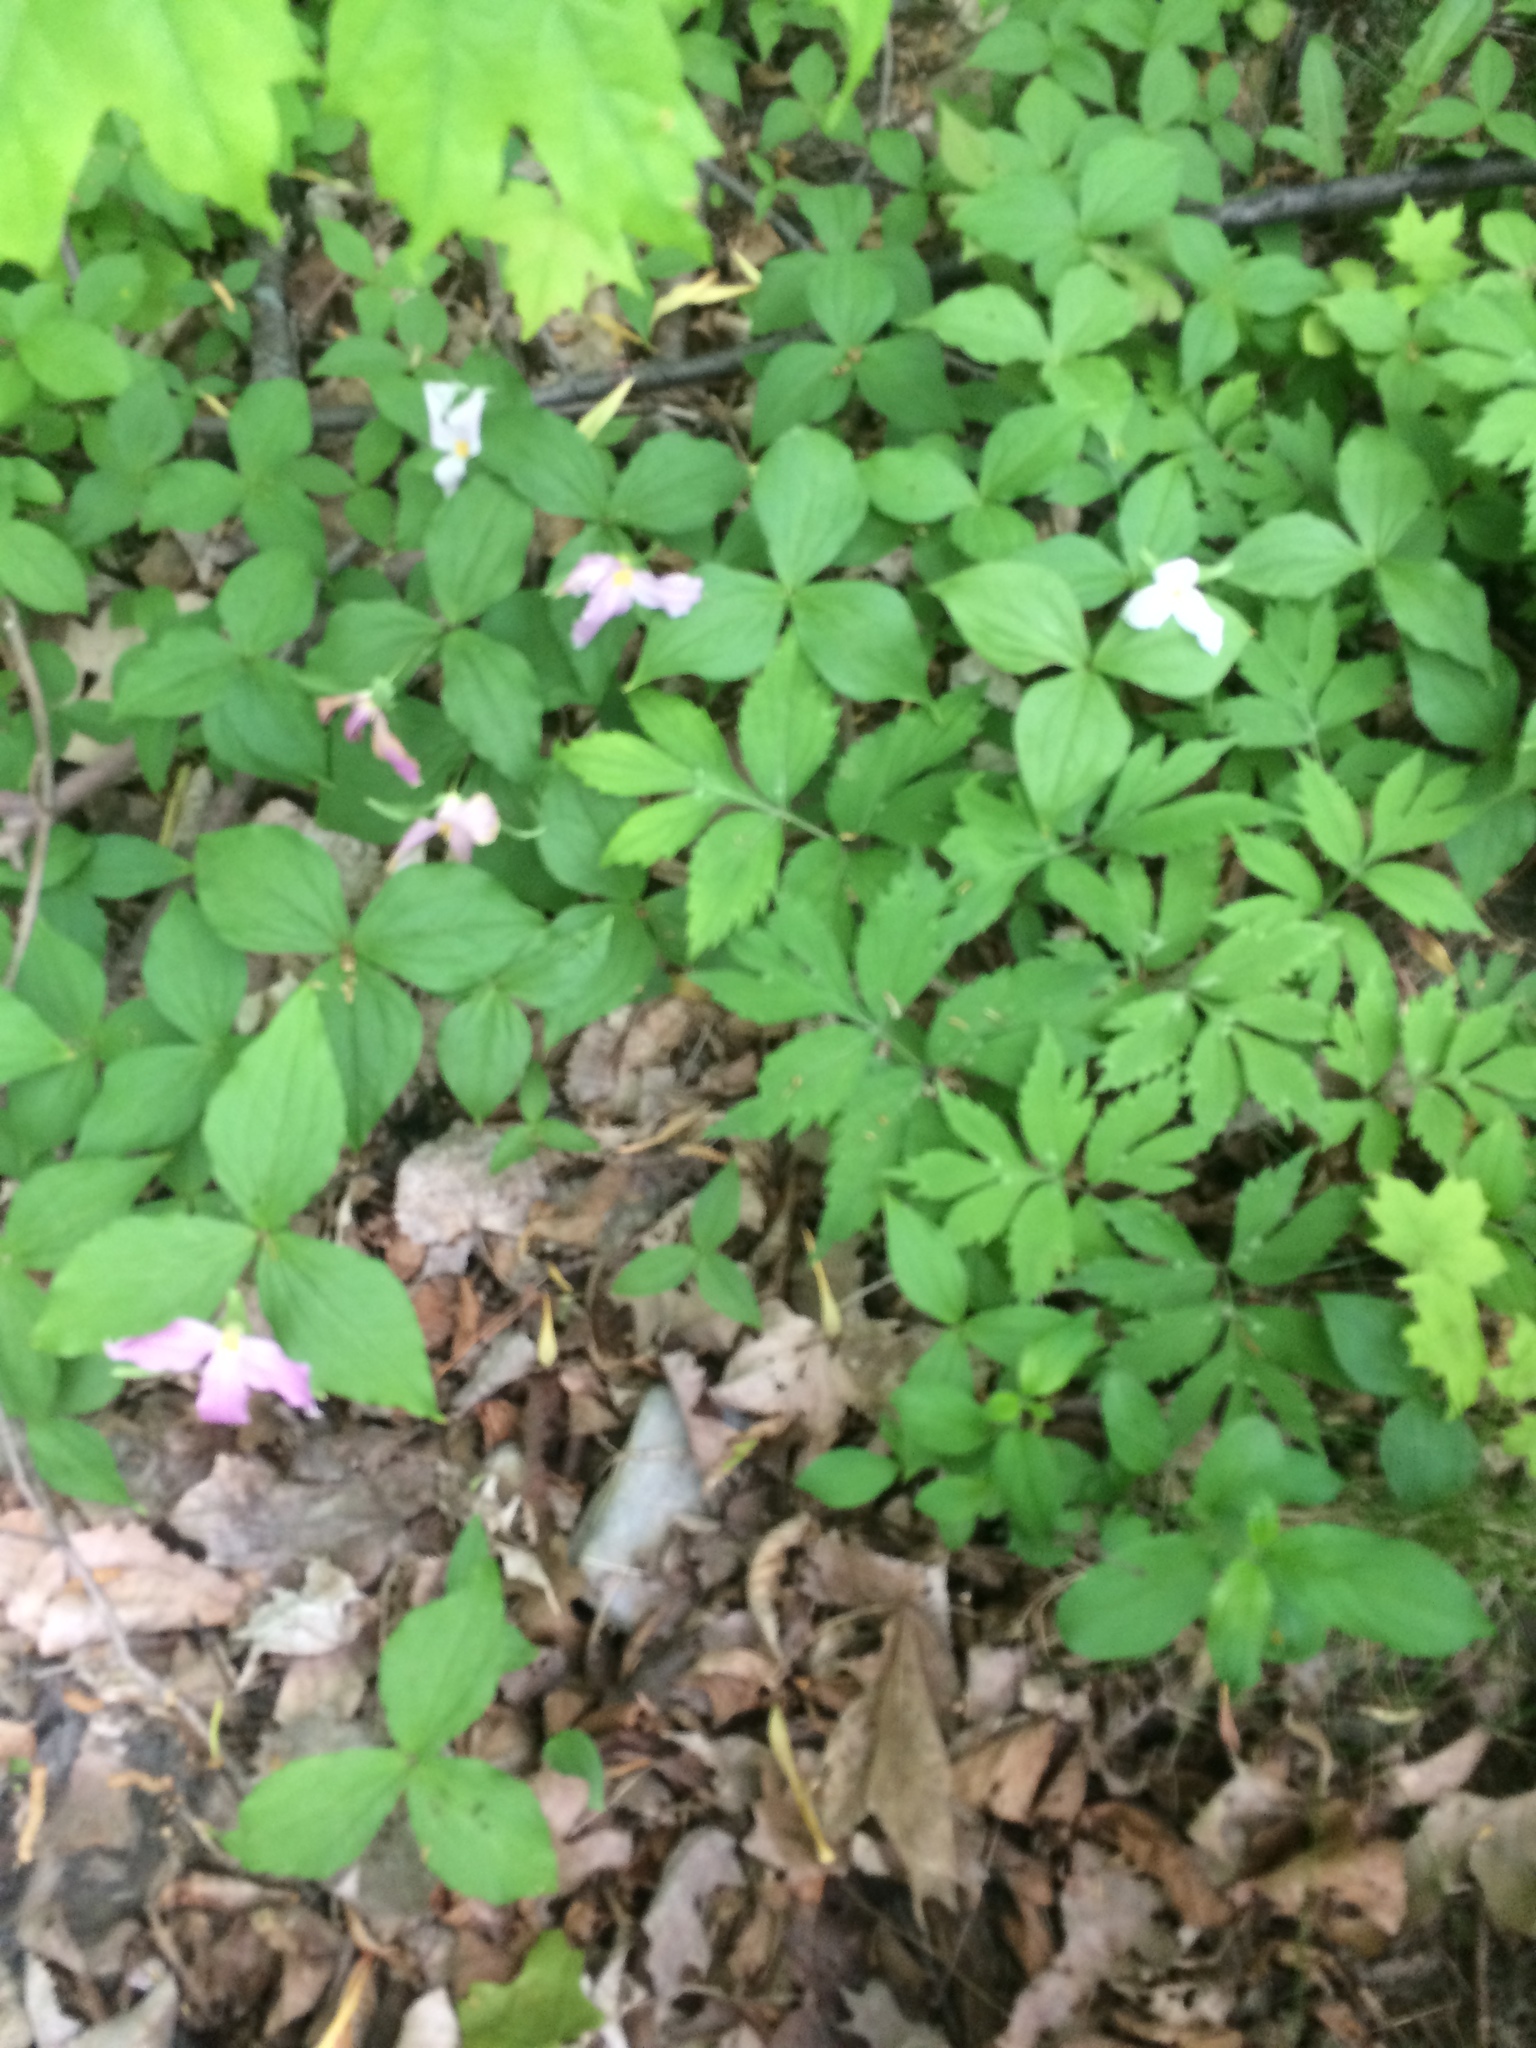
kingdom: Plantae
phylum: Tracheophyta
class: Liliopsida
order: Liliales
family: Melanthiaceae
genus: Trillium
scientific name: Trillium grandiflorum
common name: Great white trillium
